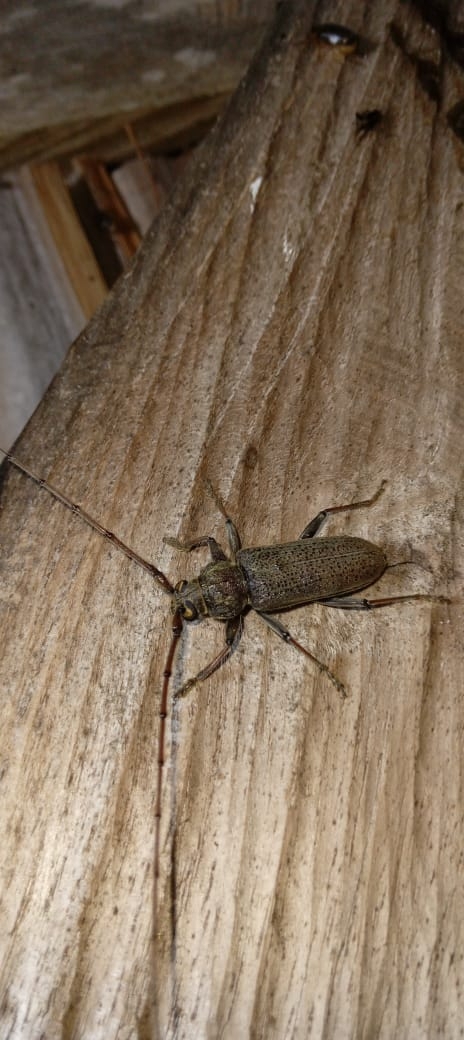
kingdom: Animalia
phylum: Arthropoda
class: Insecta
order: Coleoptera
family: Cerambycidae
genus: Stromatium
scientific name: Stromatium longicorne
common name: Long-horned beetle
